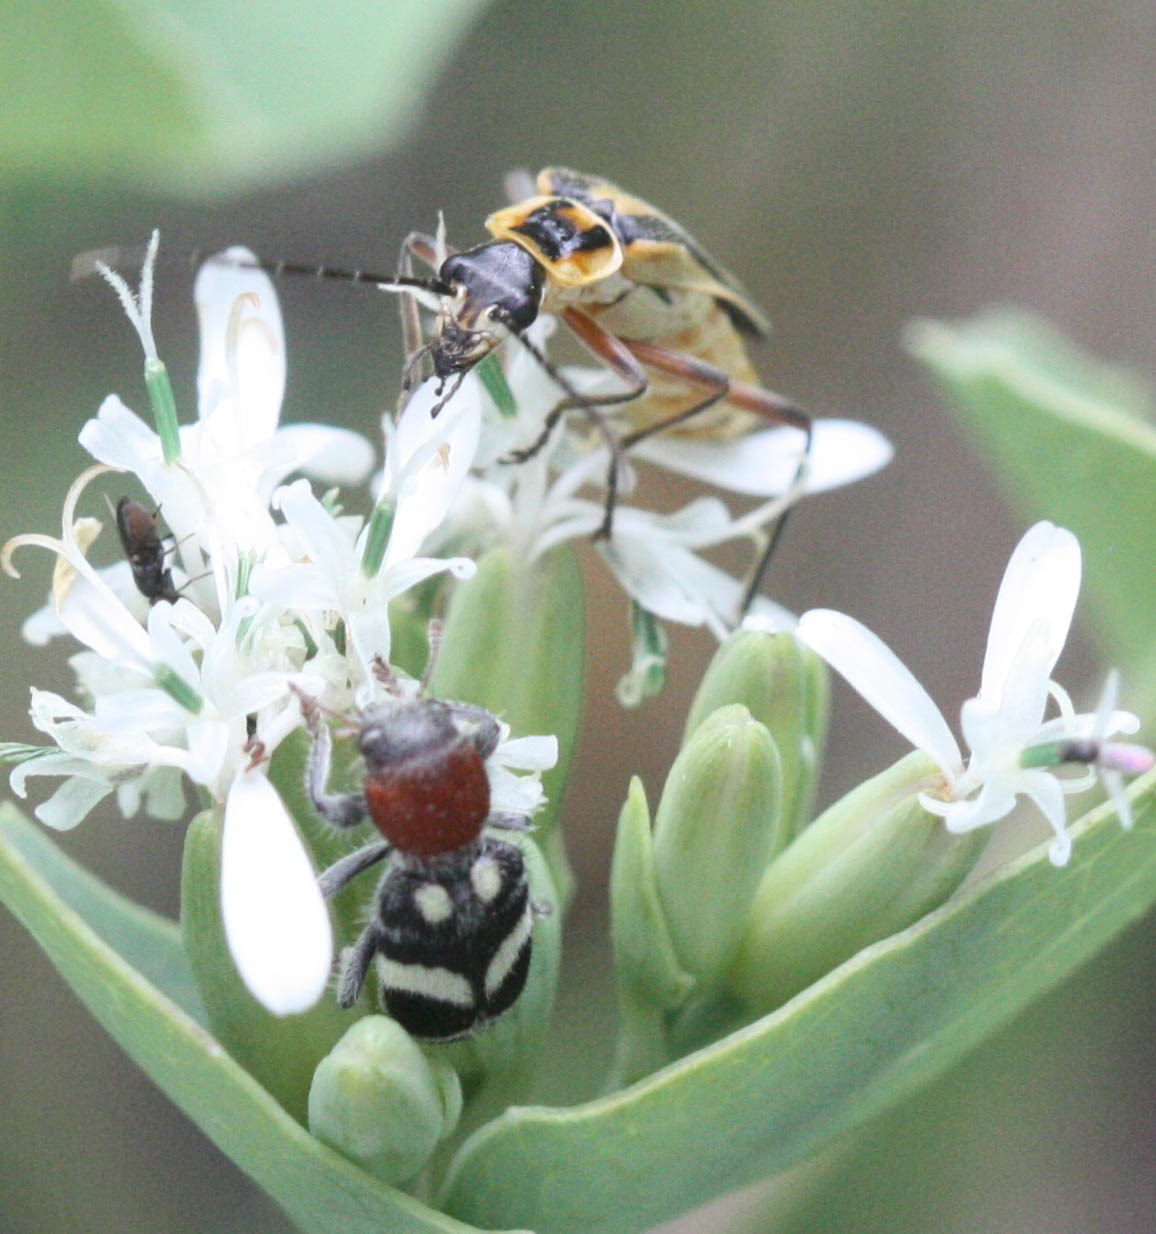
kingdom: Animalia
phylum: Arthropoda
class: Insecta
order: Coleoptera
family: Cantharidae
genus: Chauliognathus
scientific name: Chauliognathus lewisi
